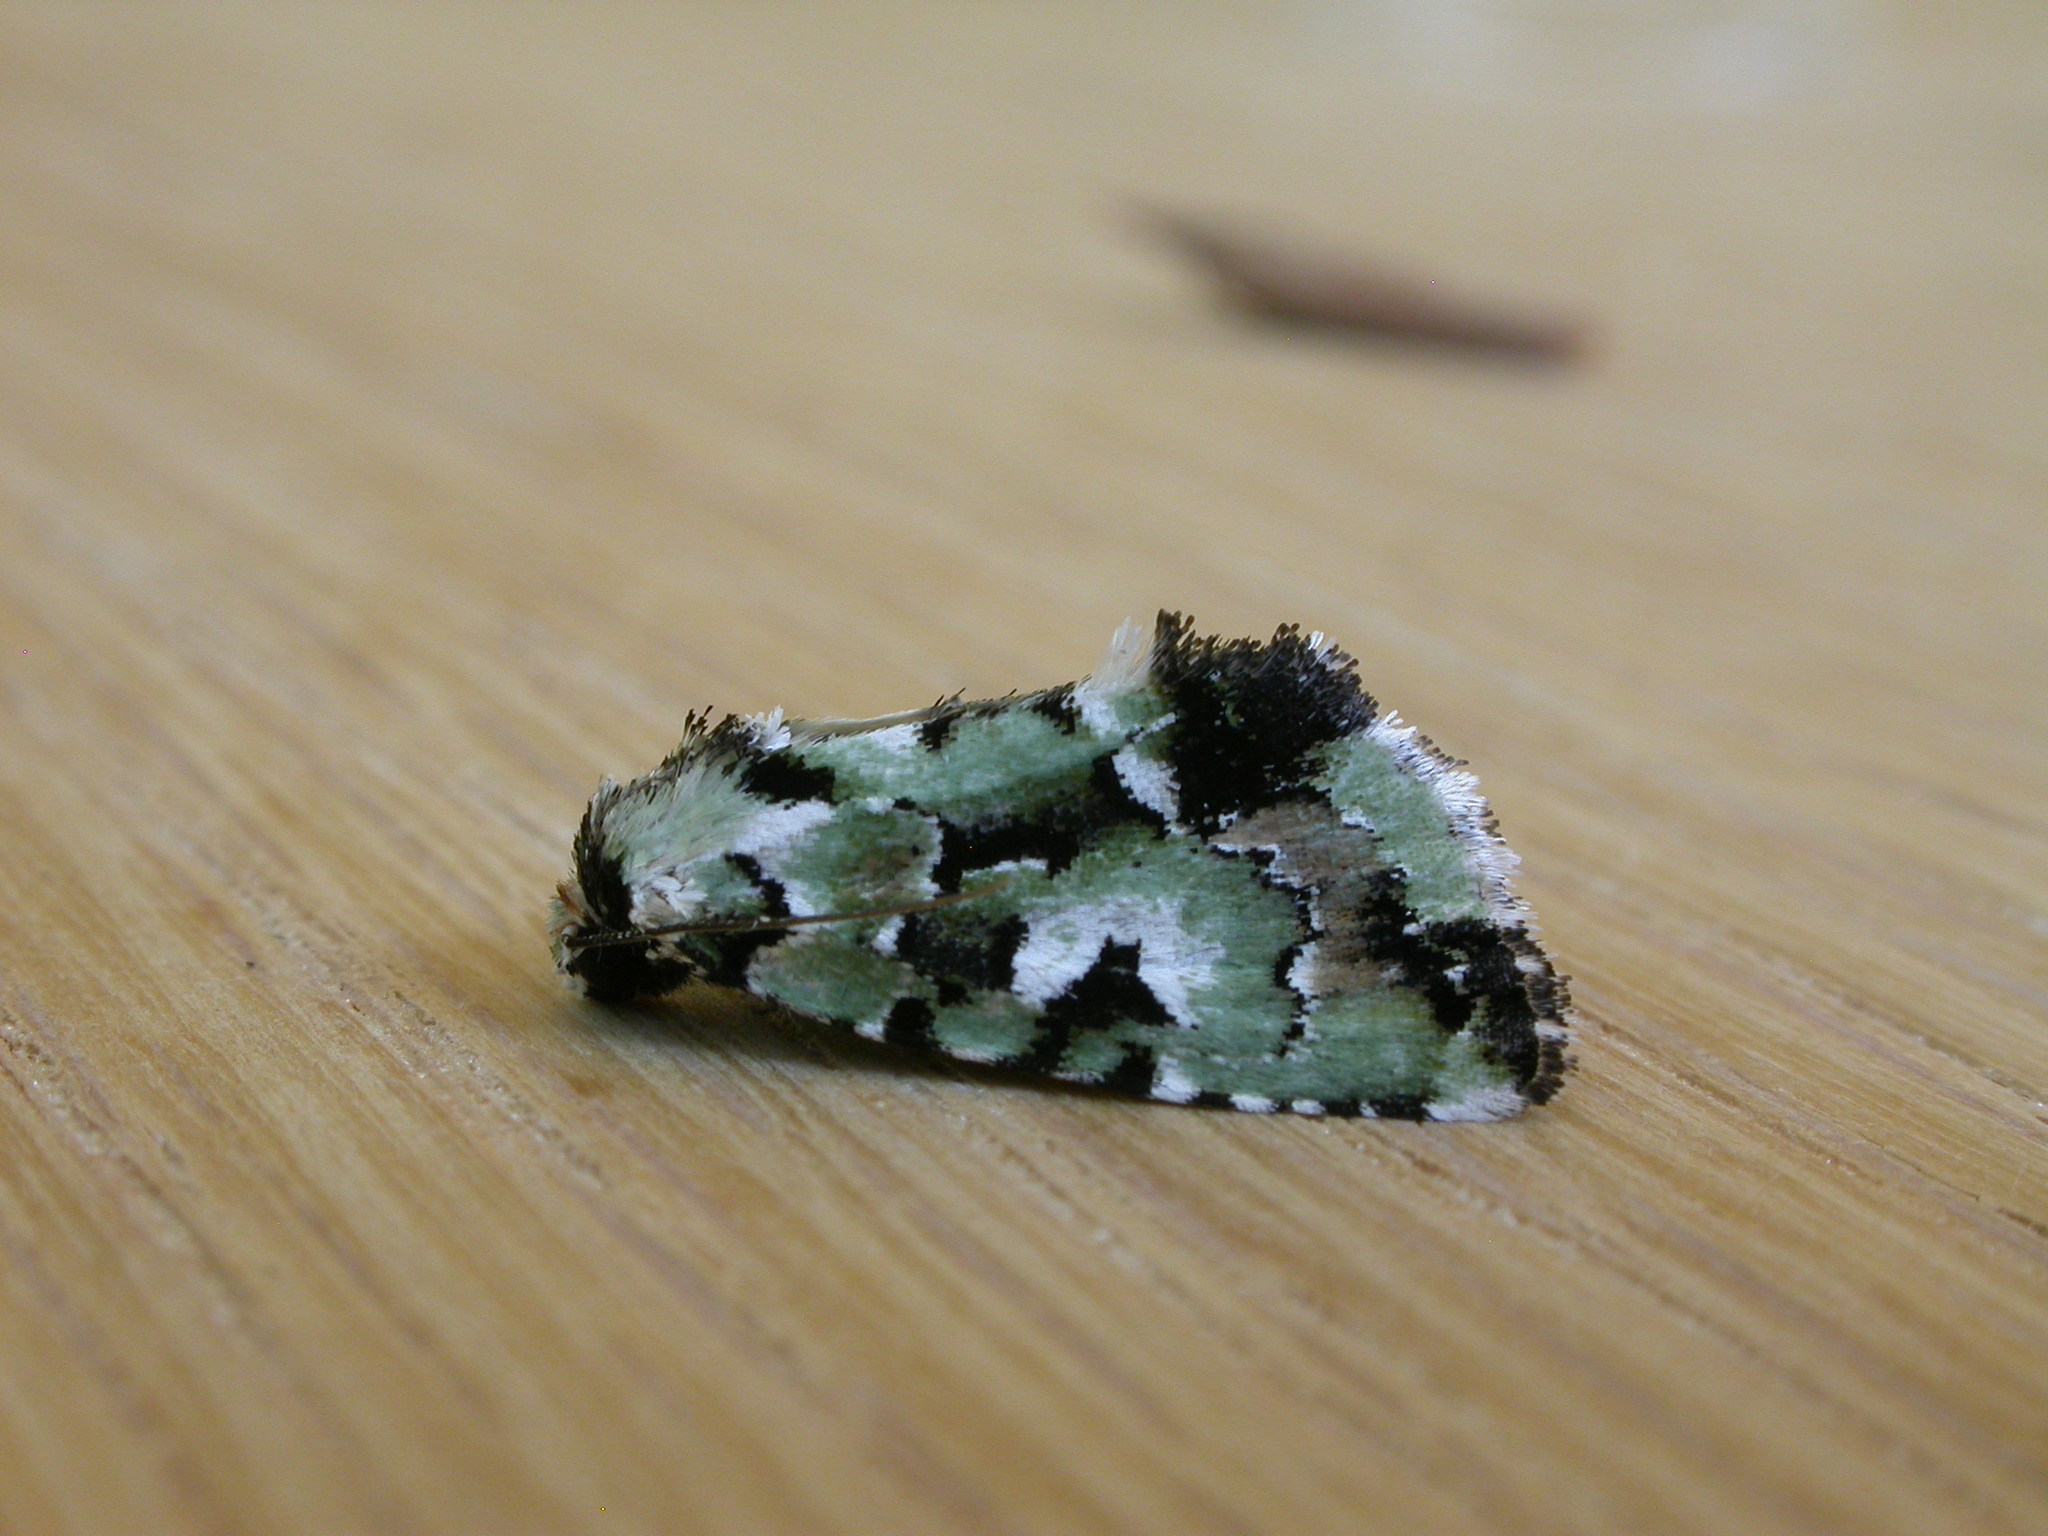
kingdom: Animalia
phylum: Arthropoda
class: Insecta
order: Lepidoptera
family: Noctuidae
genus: Epicyrtica
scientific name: Epicyrtica metallica
